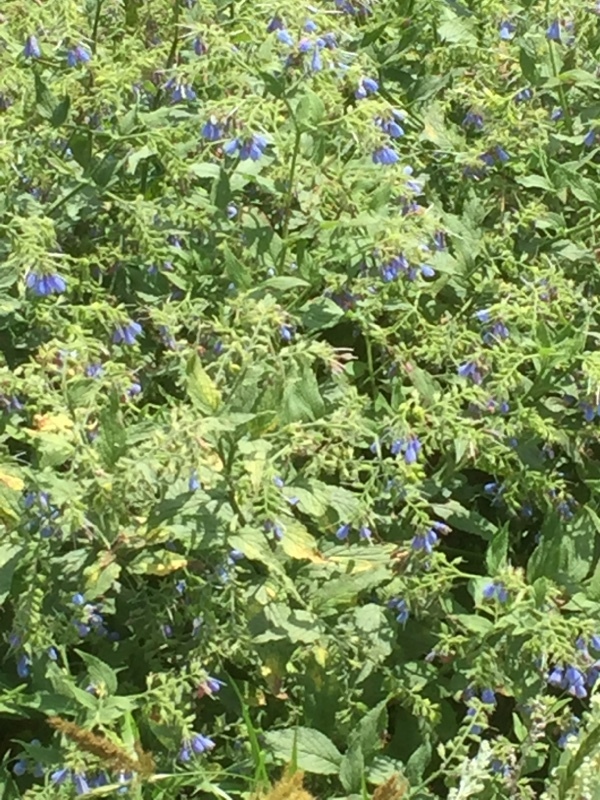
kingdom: Plantae
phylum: Tracheophyta
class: Magnoliopsida
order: Boraginales
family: Boraginaceae
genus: Symphytum
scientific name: Symphytum asperum
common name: Prickly comfrey
